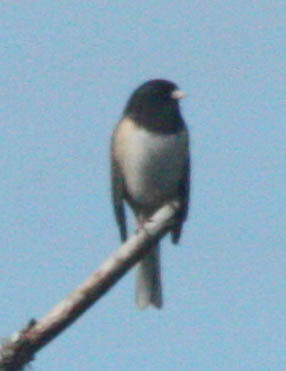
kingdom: Animalia
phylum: Chordata
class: Aves
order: Passeriformes
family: Passerellidae
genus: Junco
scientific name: Junco hyemalis
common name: Dark-eyed junco
